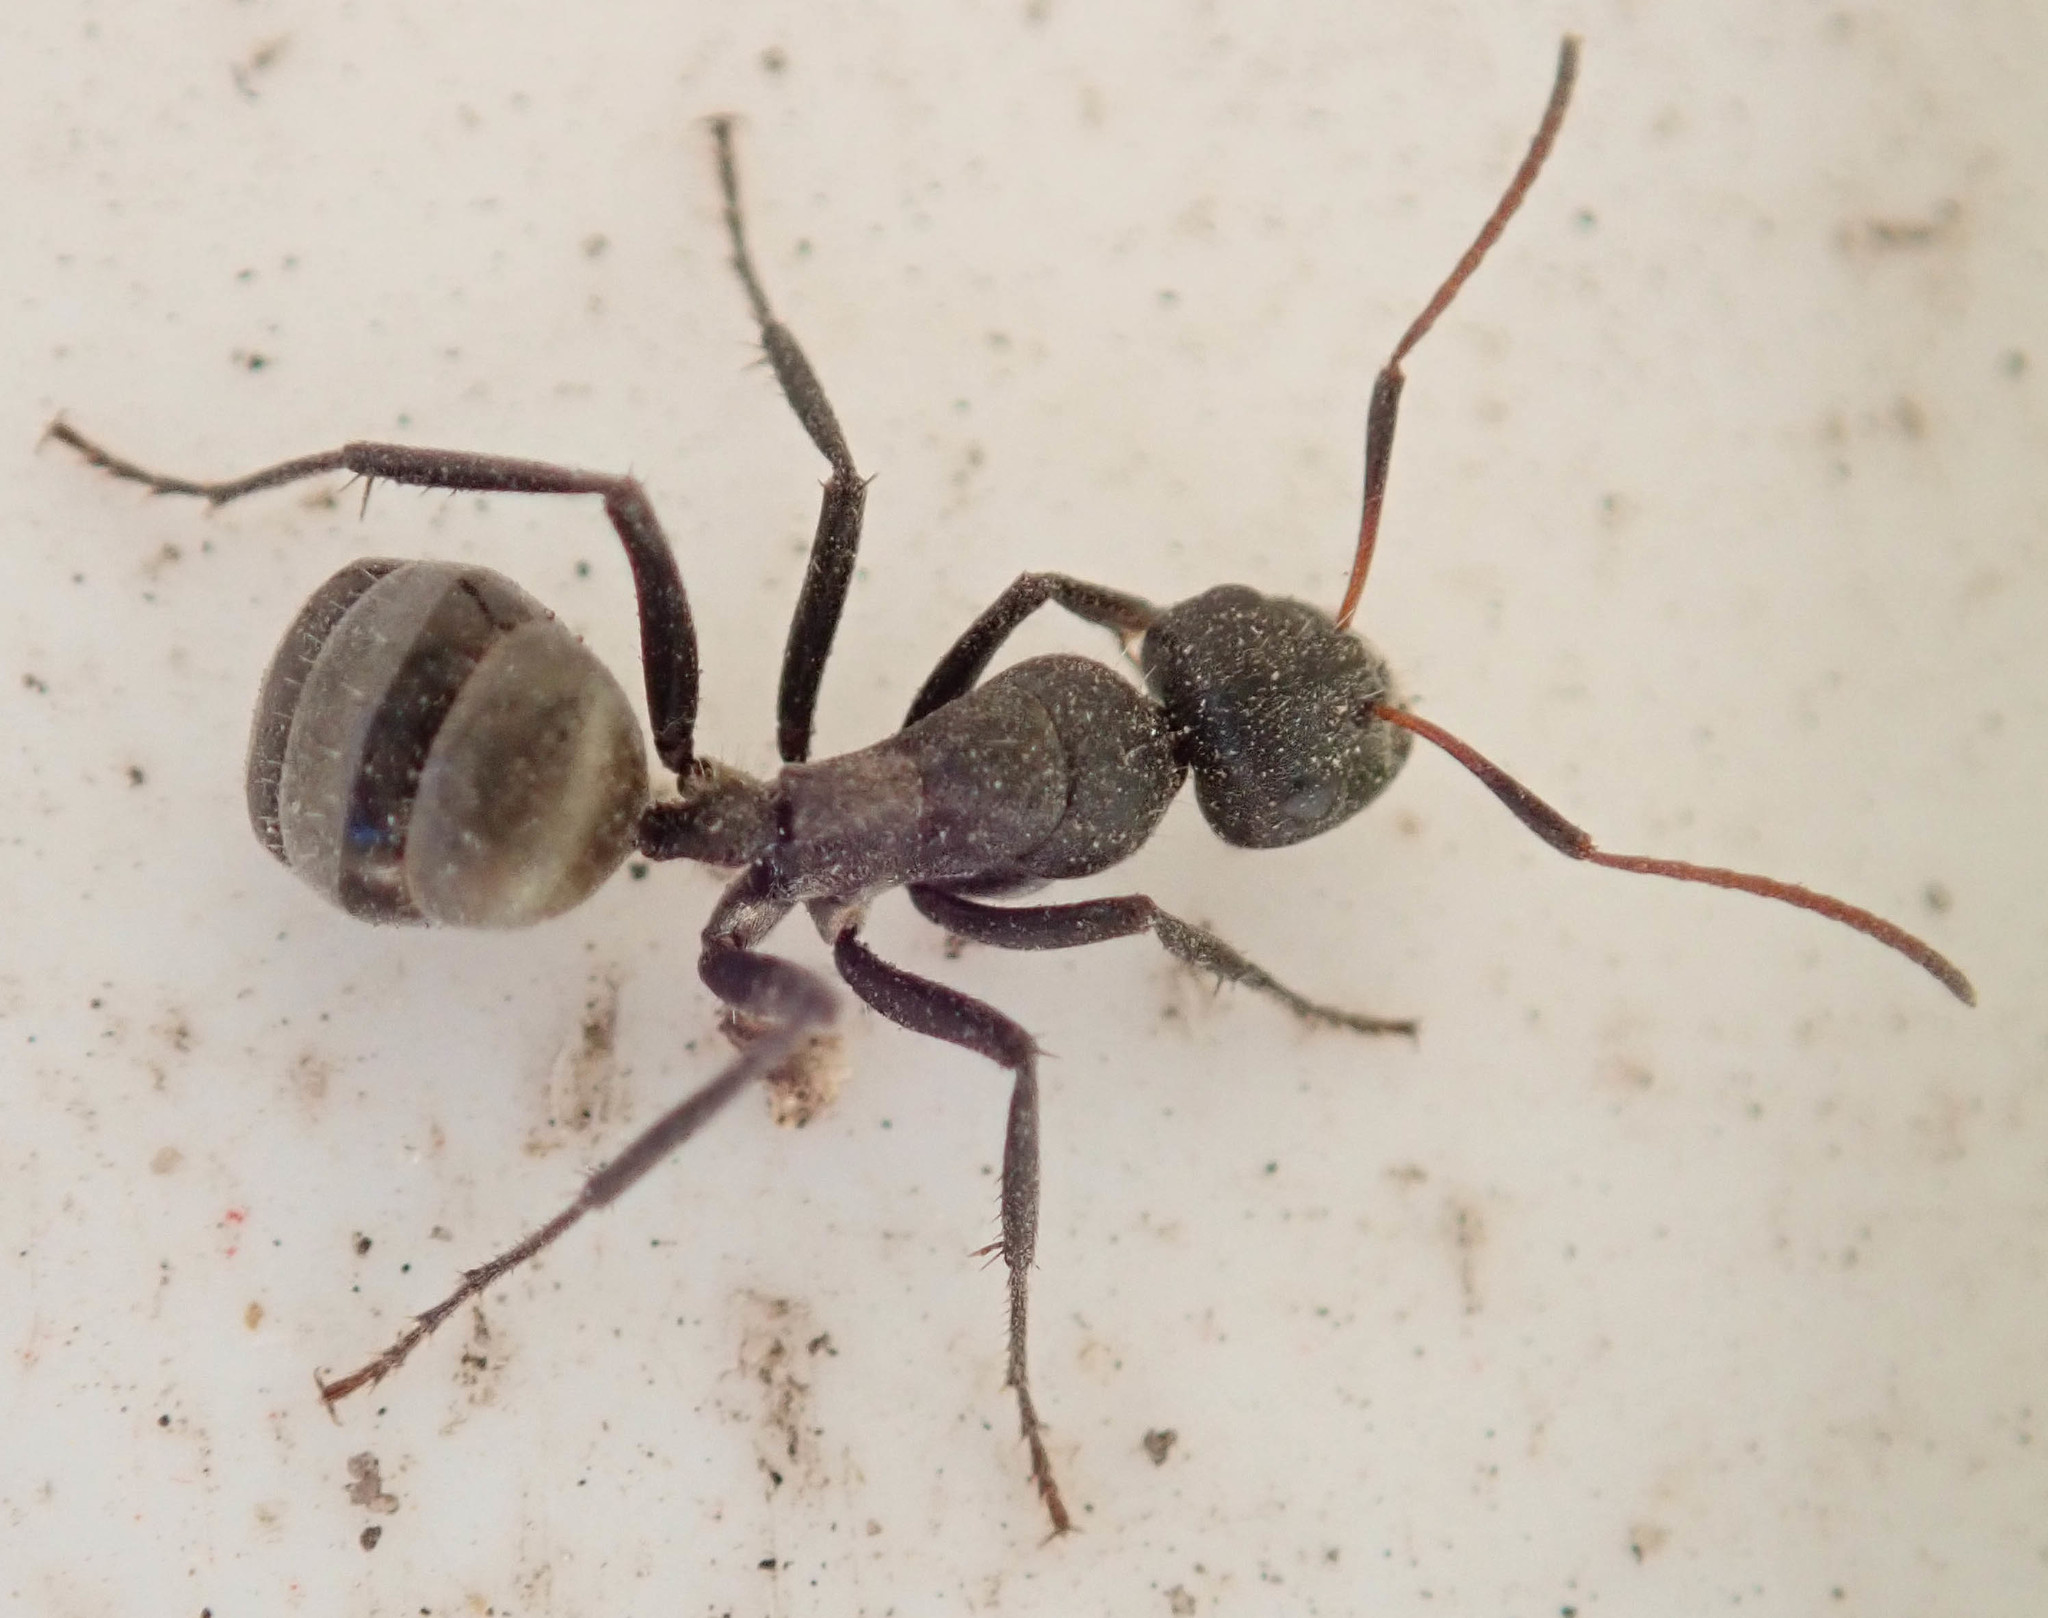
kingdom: Animalia
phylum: Arthropoda
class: Insecta
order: Hymenoptera
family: Formicidae
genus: Camponotus
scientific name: Camponotus mayri
